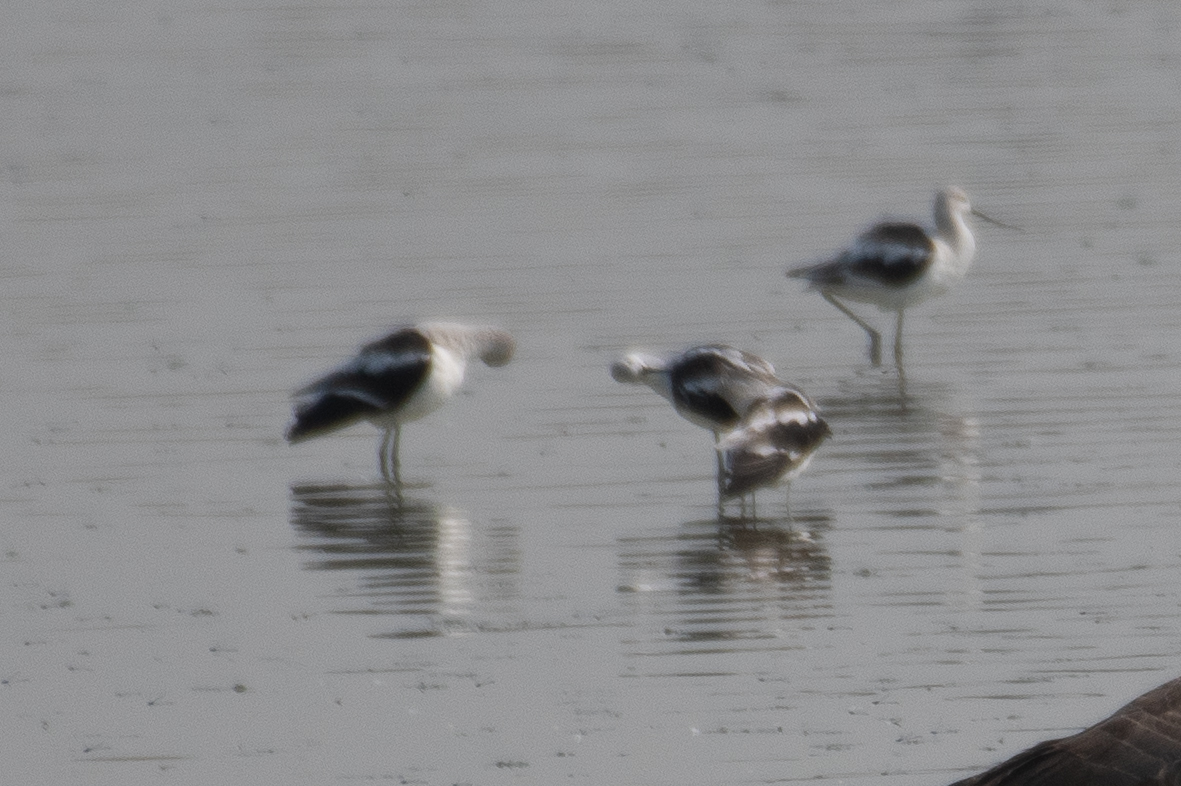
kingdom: Animalia
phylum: Chordata
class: Aves
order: Charadriiformes
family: Recurvirostridae
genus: Recurvirostra
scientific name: Recurvirostra americana
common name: American avocet
